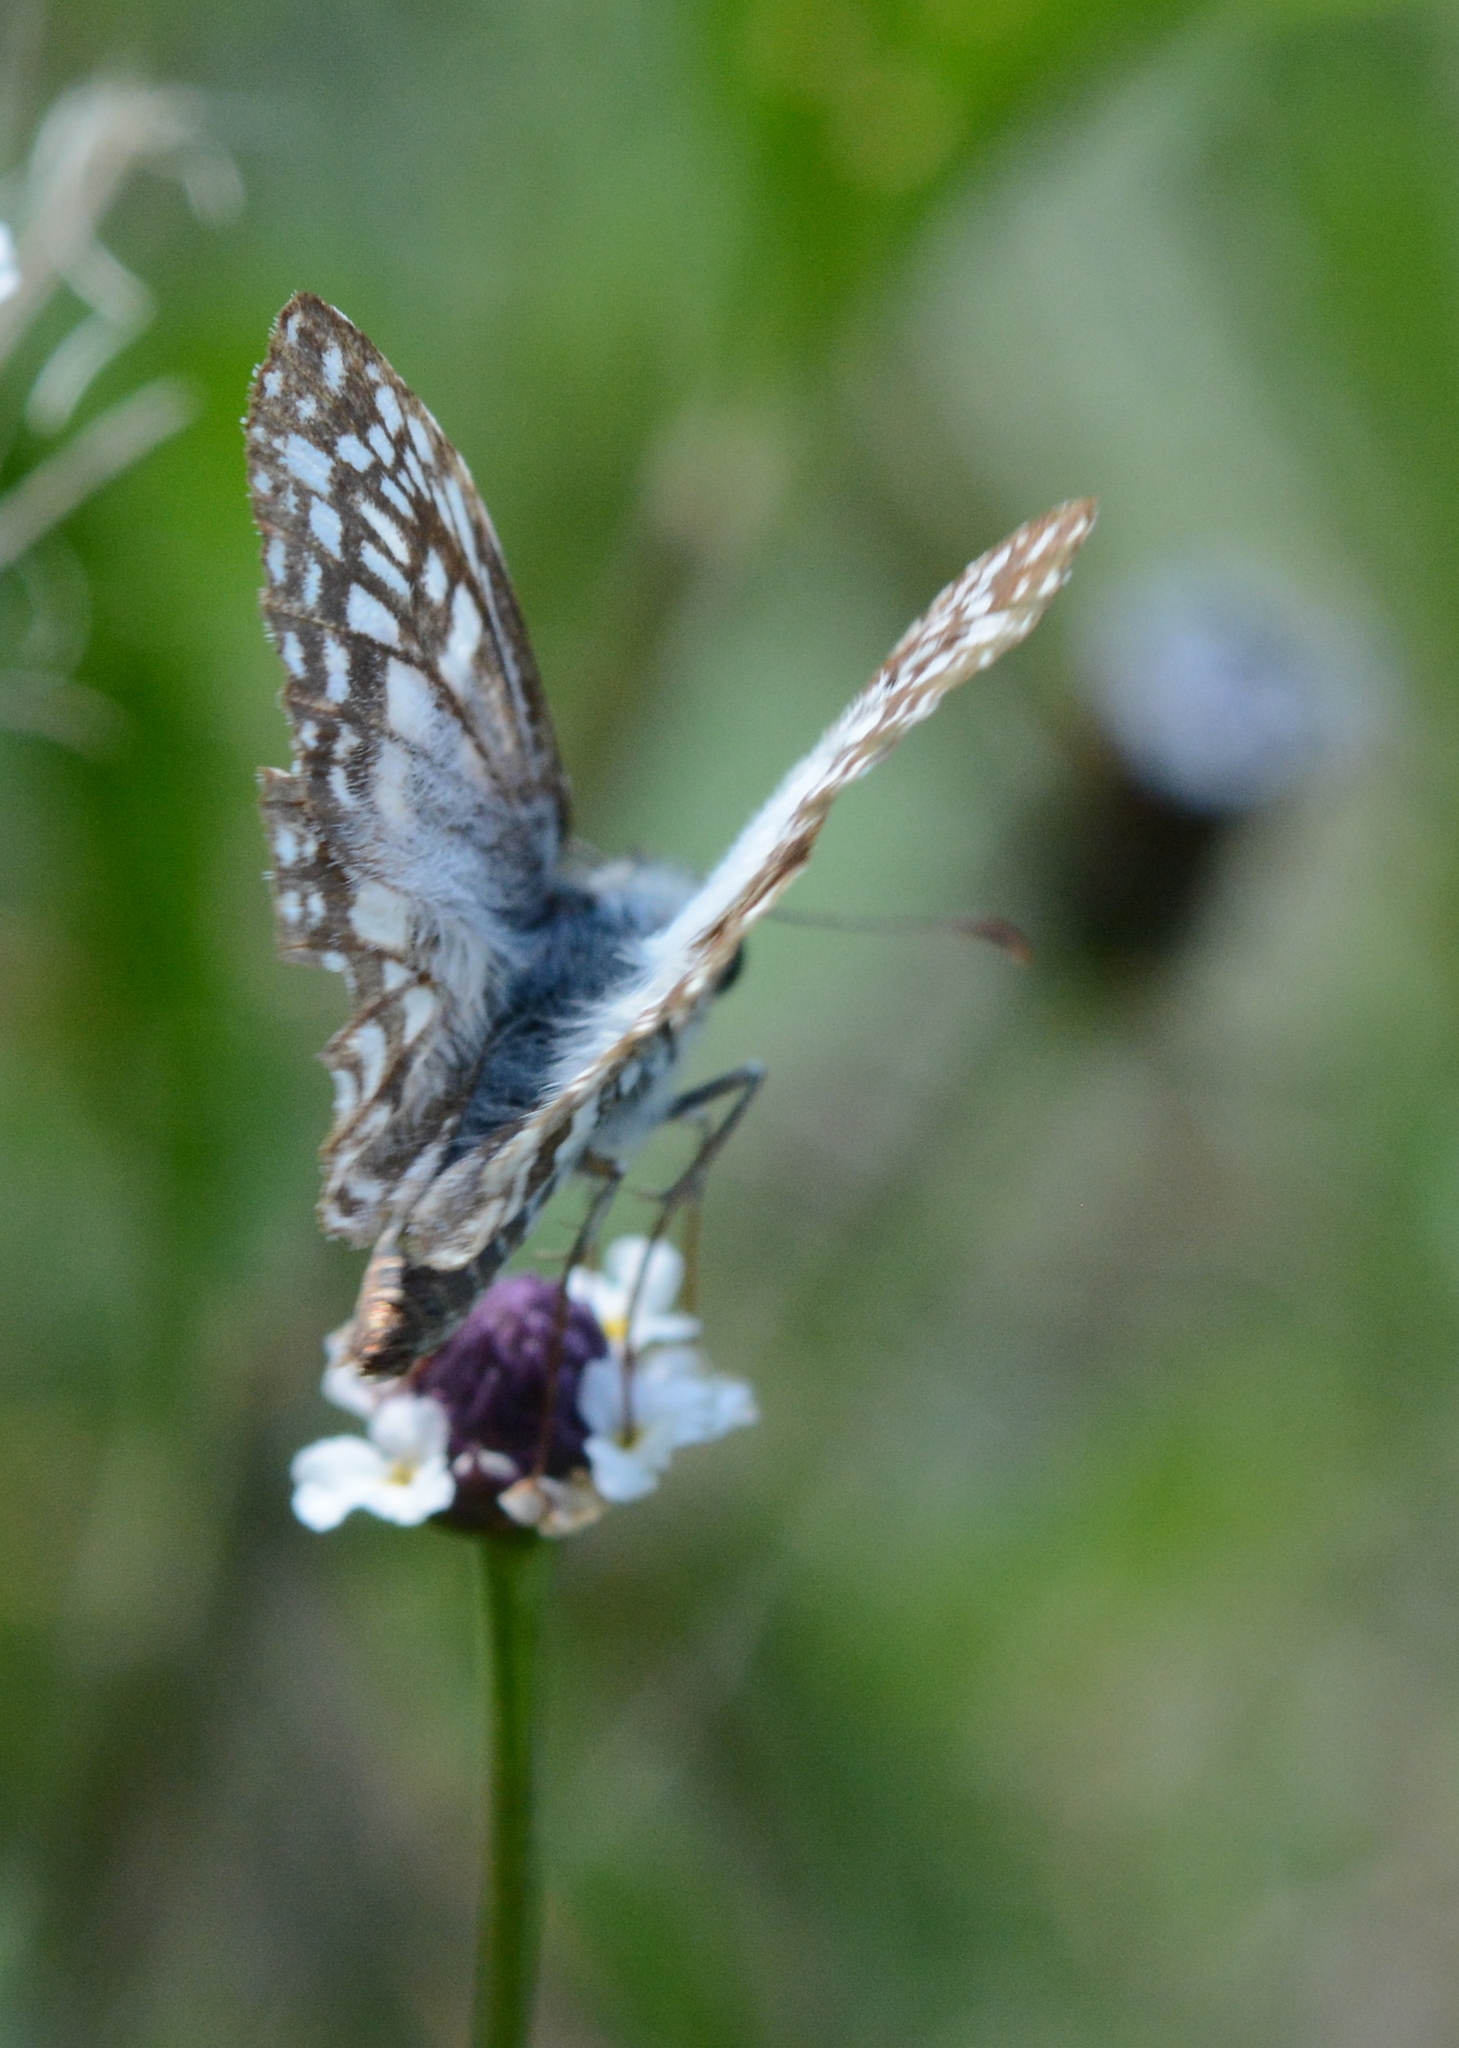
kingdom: Animalia
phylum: Arthropoda
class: Insecta
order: Lepidoptera
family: Hesperiidae
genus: Pyrgus
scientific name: Pyrgus oileus
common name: Tropical checkered-skipper
